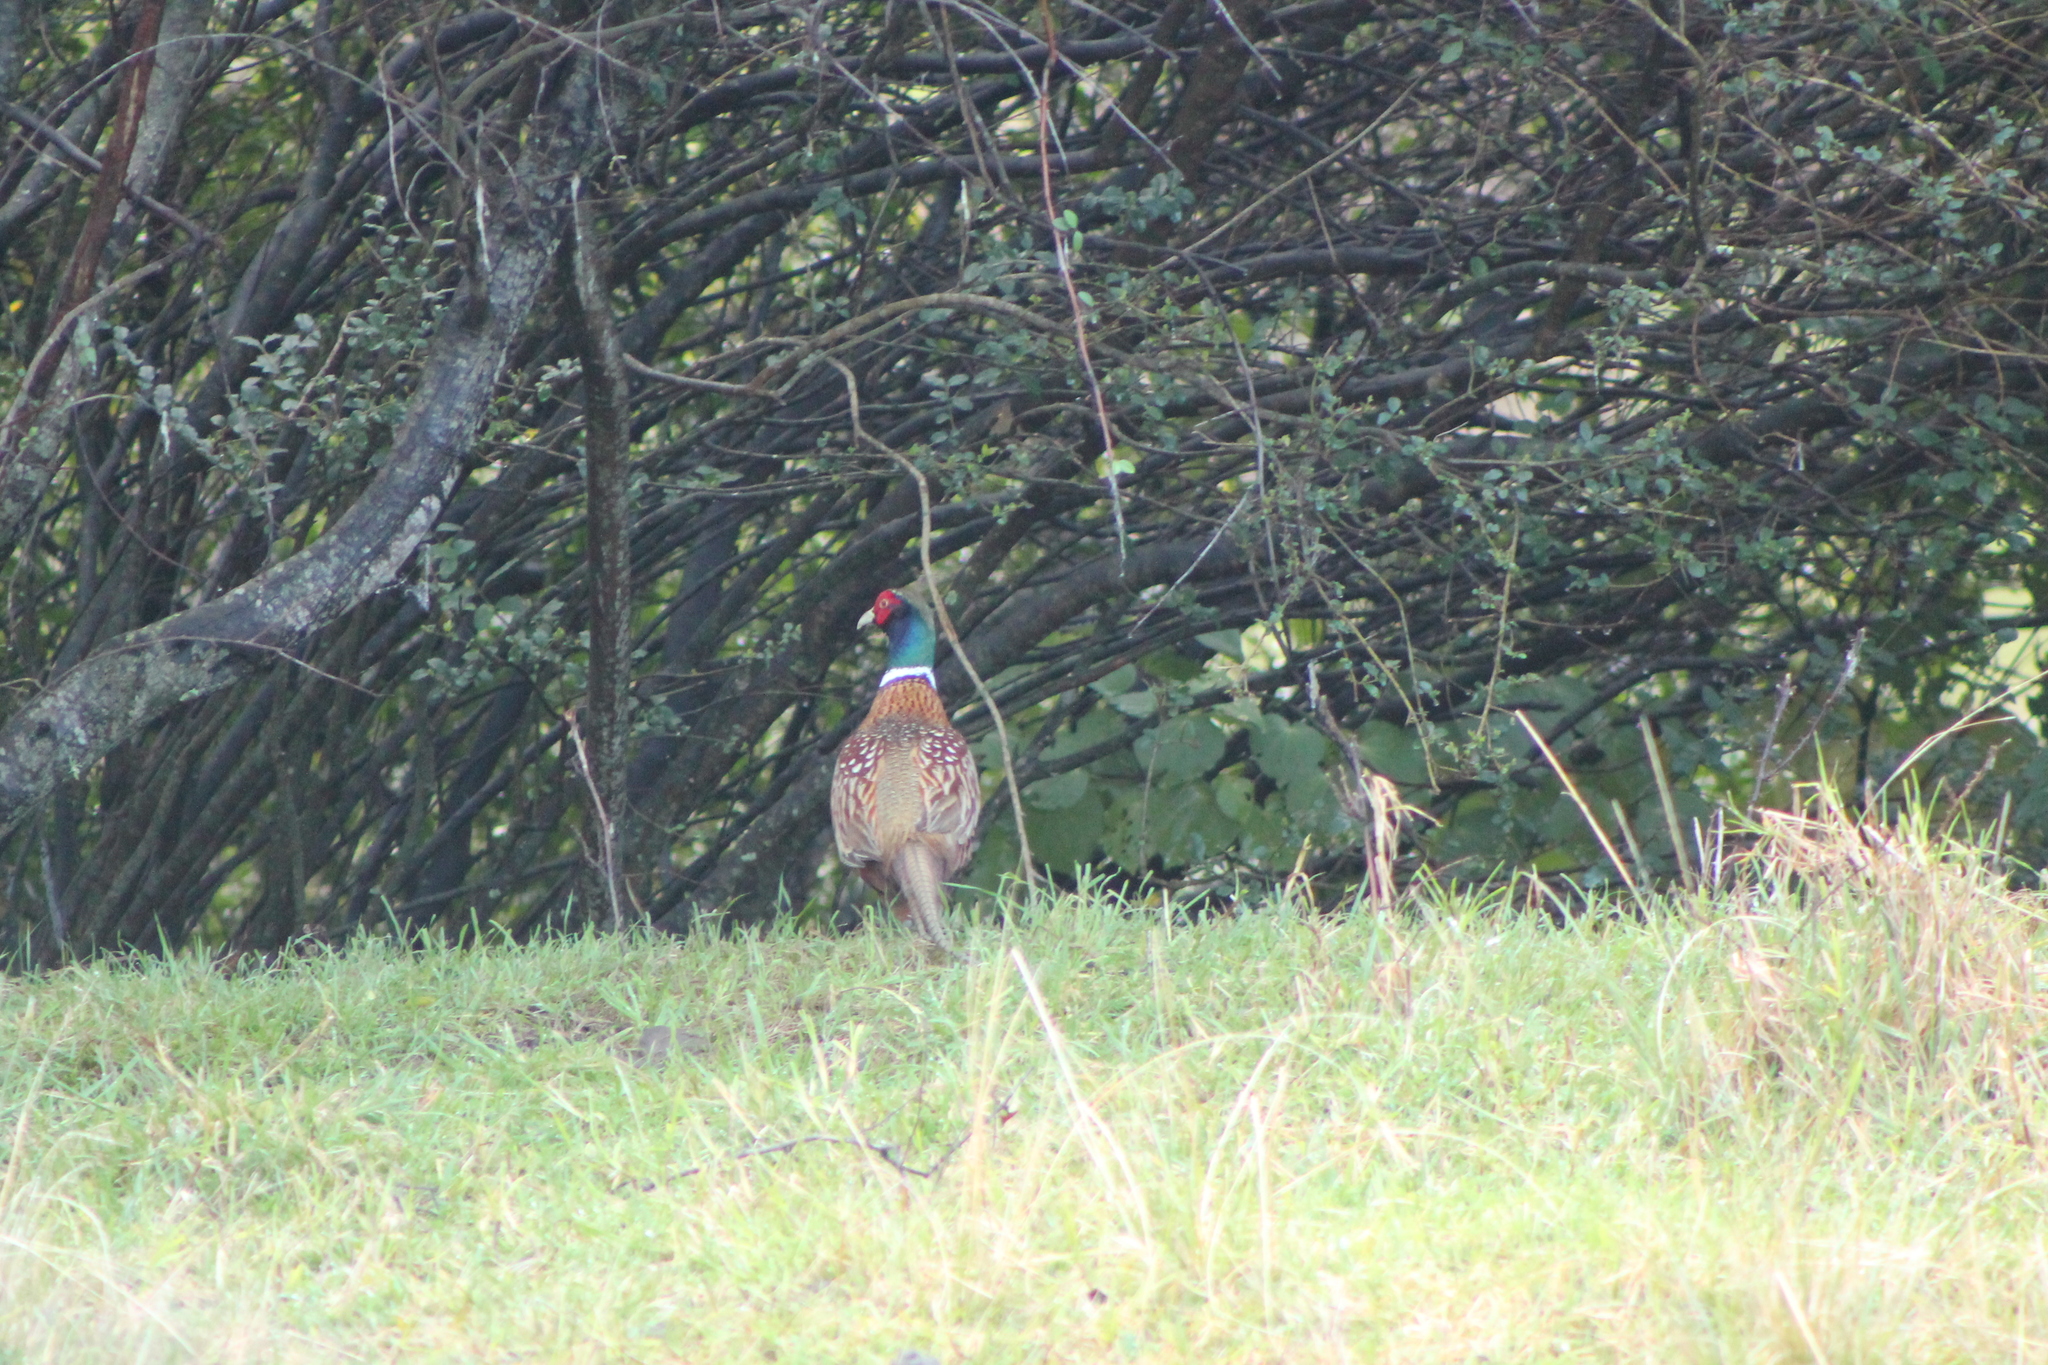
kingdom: Animalia
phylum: Chordata
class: Aves
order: Galliformes
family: Phasianidae
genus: Phasianus
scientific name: Phasianus colchicus
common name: Common pheasant
